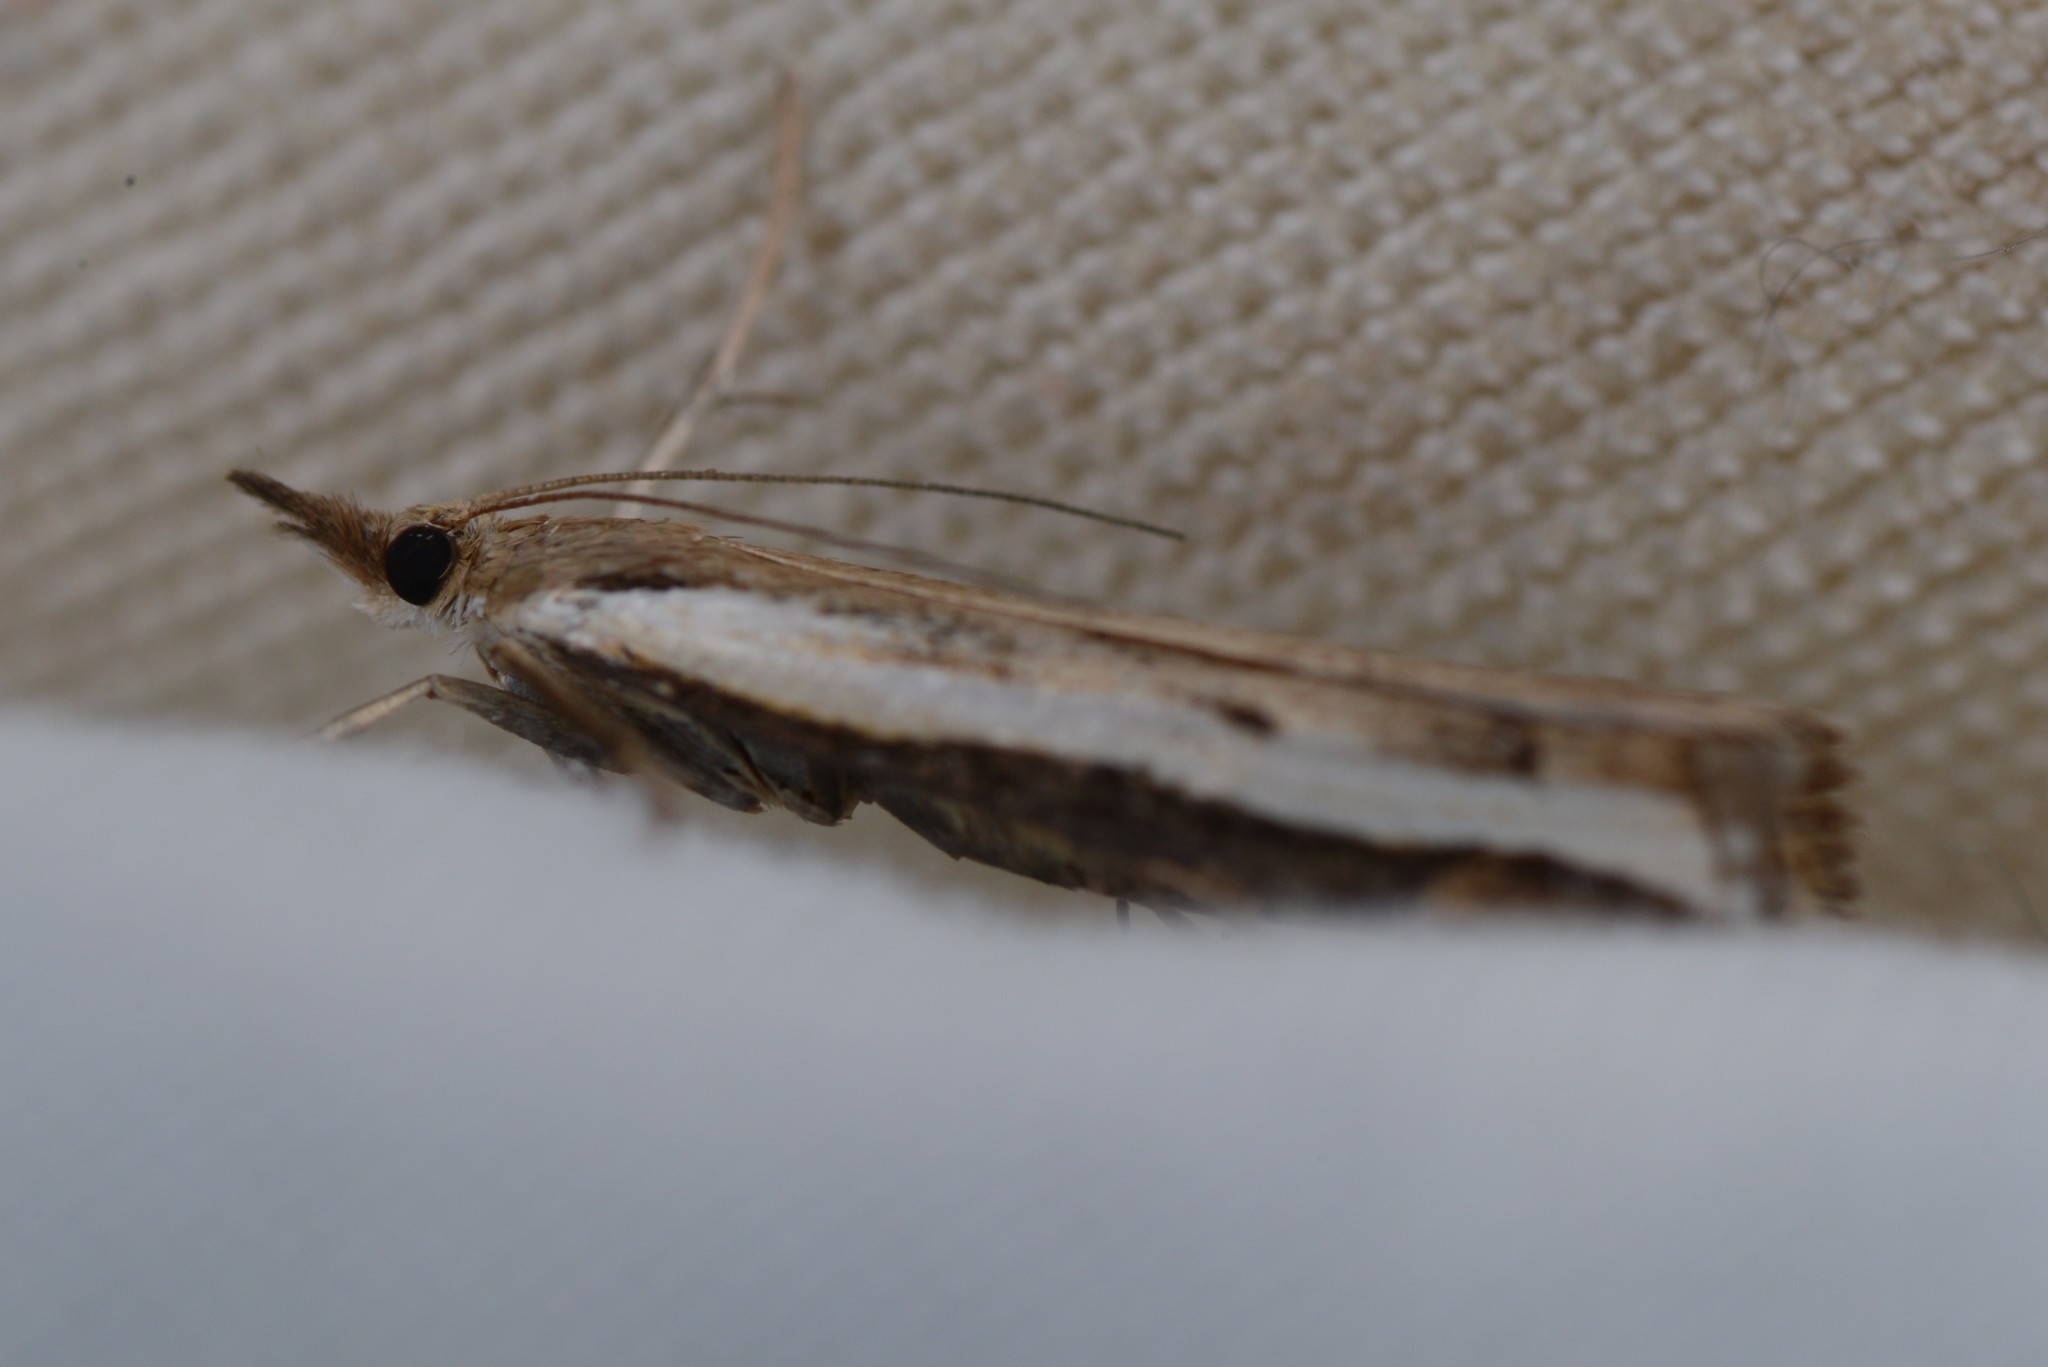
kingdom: Animalia
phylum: Arthropoda
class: Insecta
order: Lepidoptera
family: Crambidae
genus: Orocrambus
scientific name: Orocrambus flexuosellus
